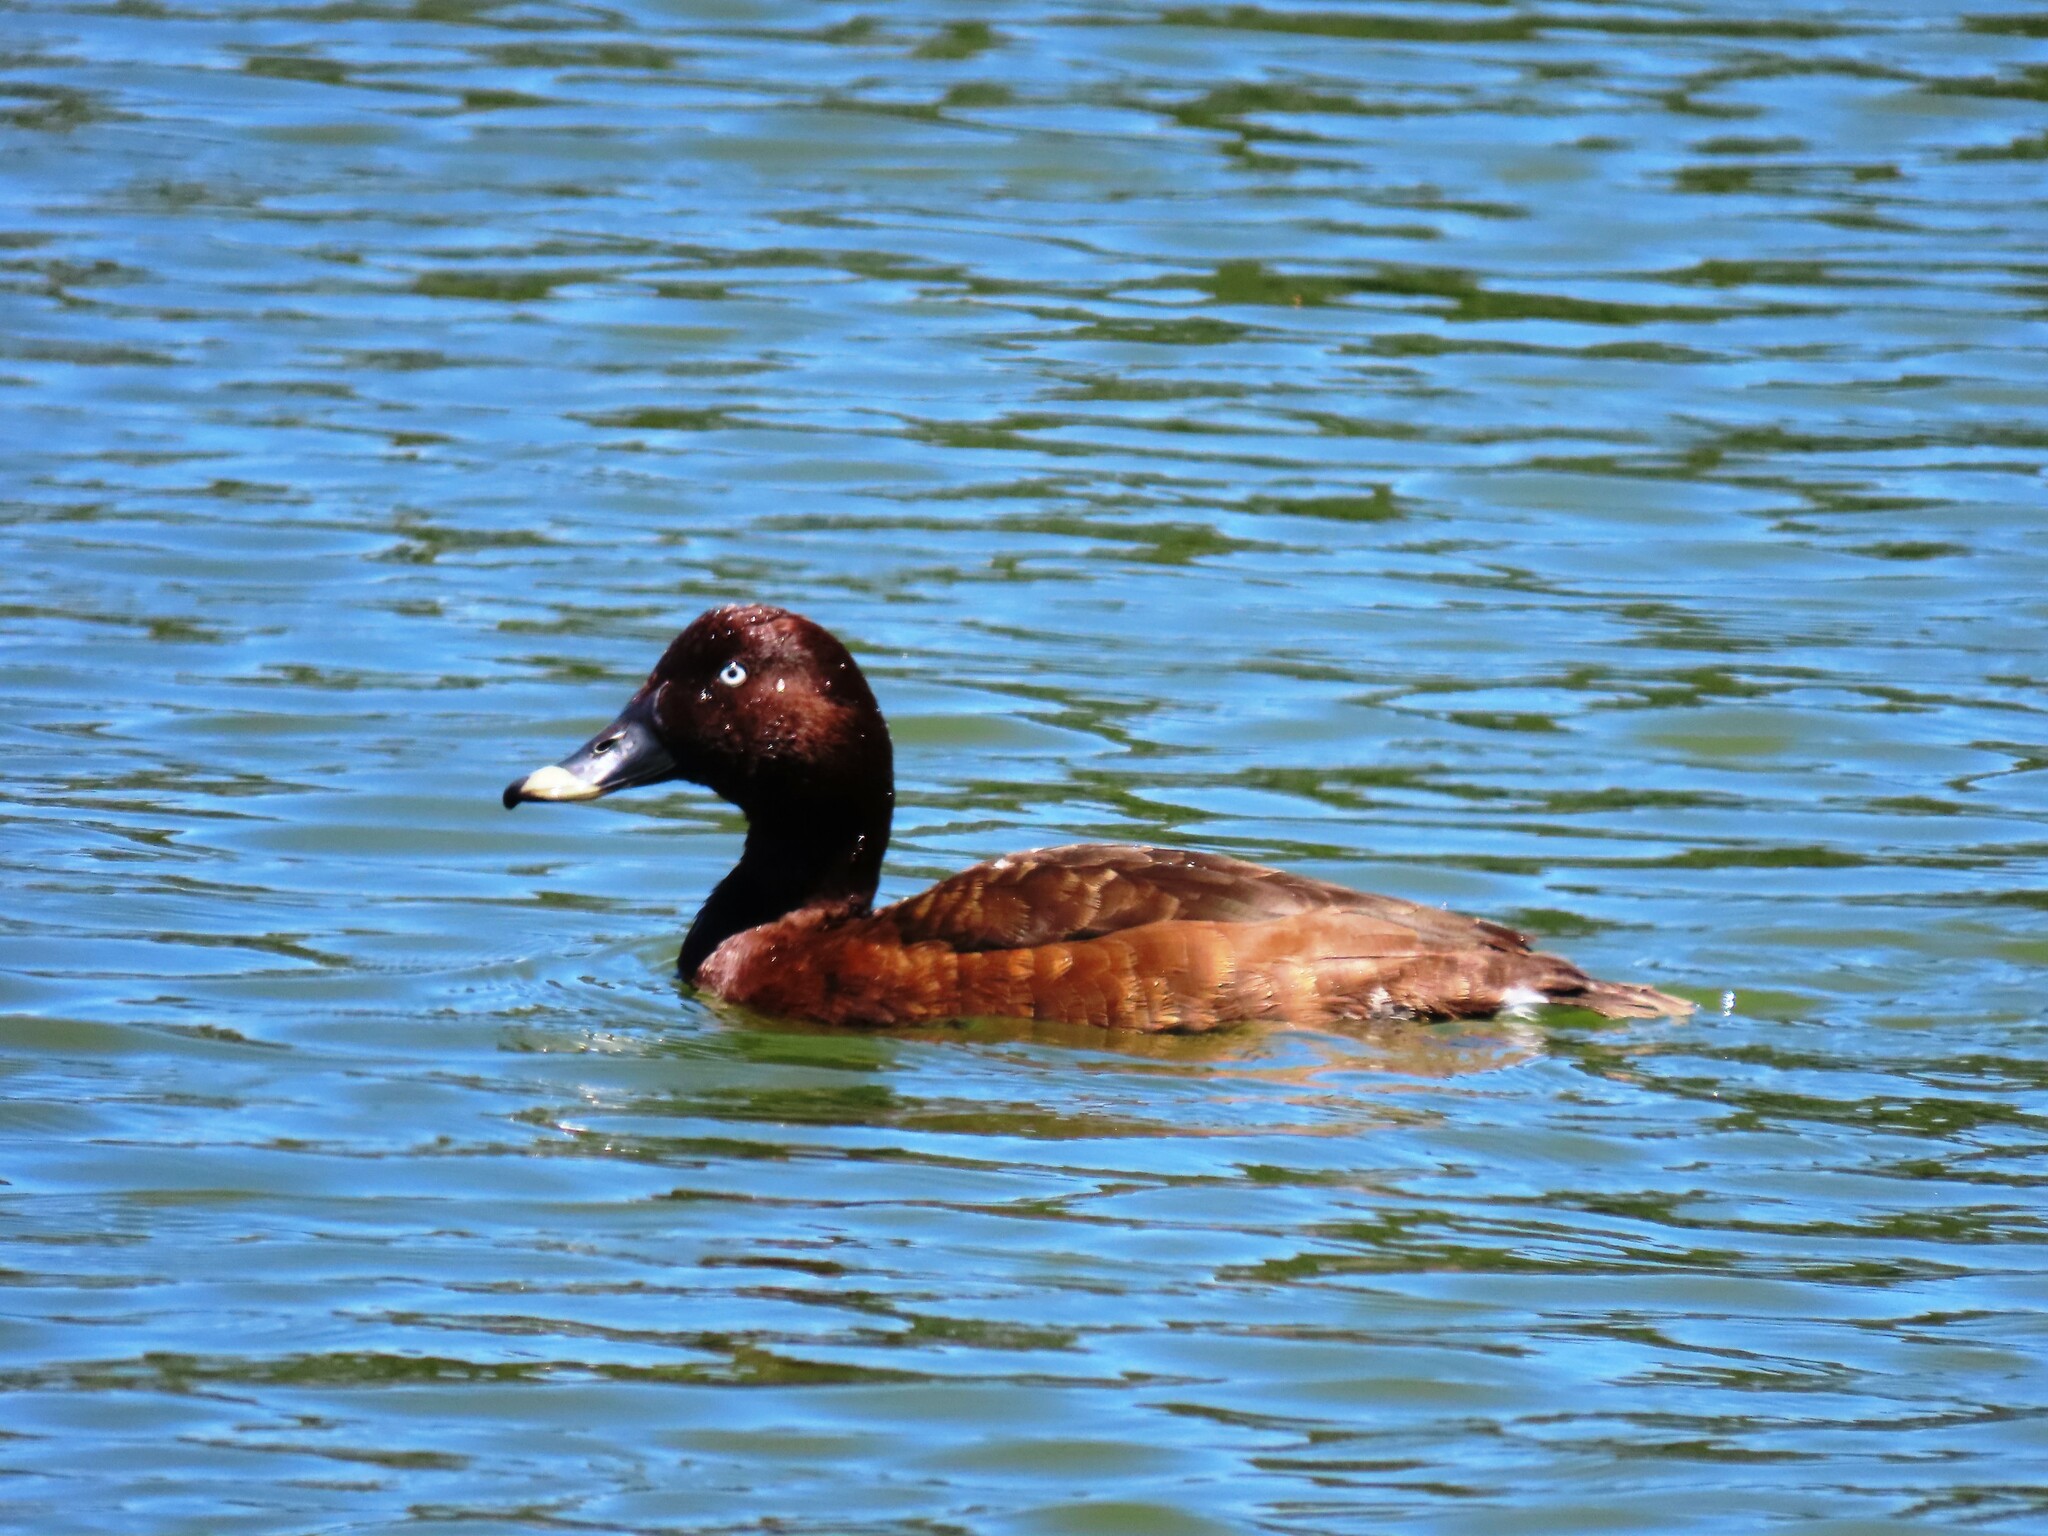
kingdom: Animalia
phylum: Chordata
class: Aves
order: Anseriformes
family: Anatidae
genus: Aythya
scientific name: Aythya australis
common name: Hardhead
